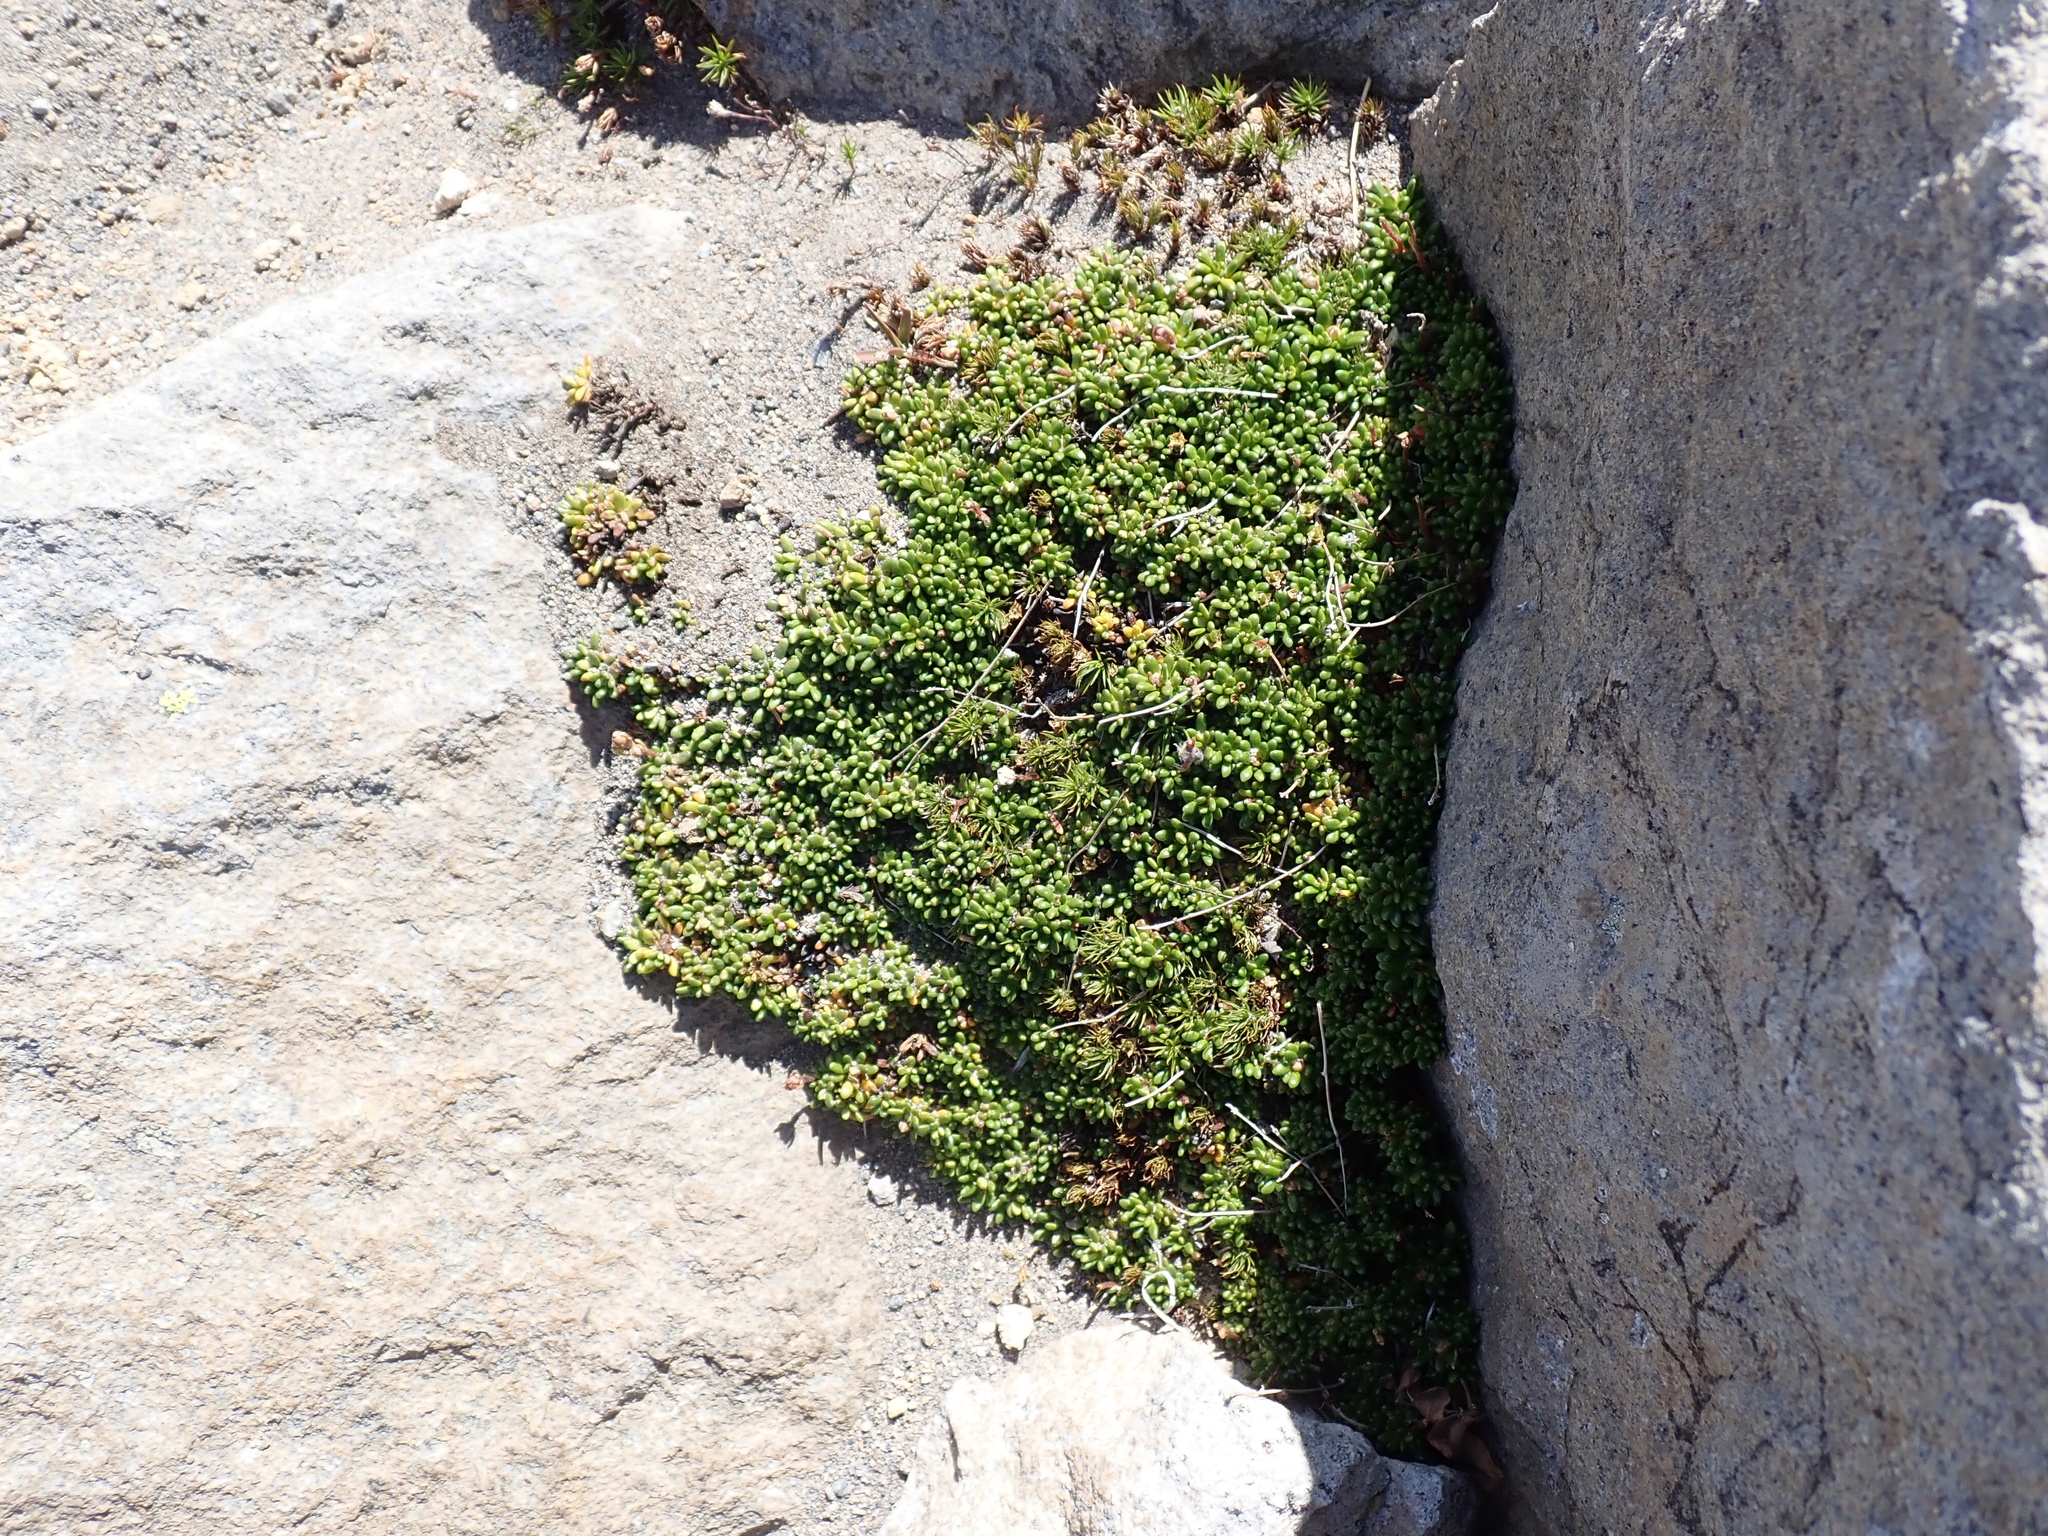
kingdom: Plantae
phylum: Tracheophyta
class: Magnoliopsida
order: Saxifragales
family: Saxifragaceae
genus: Micranthes
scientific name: Micranthes tolmiei
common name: Tolmie's saxifrage
